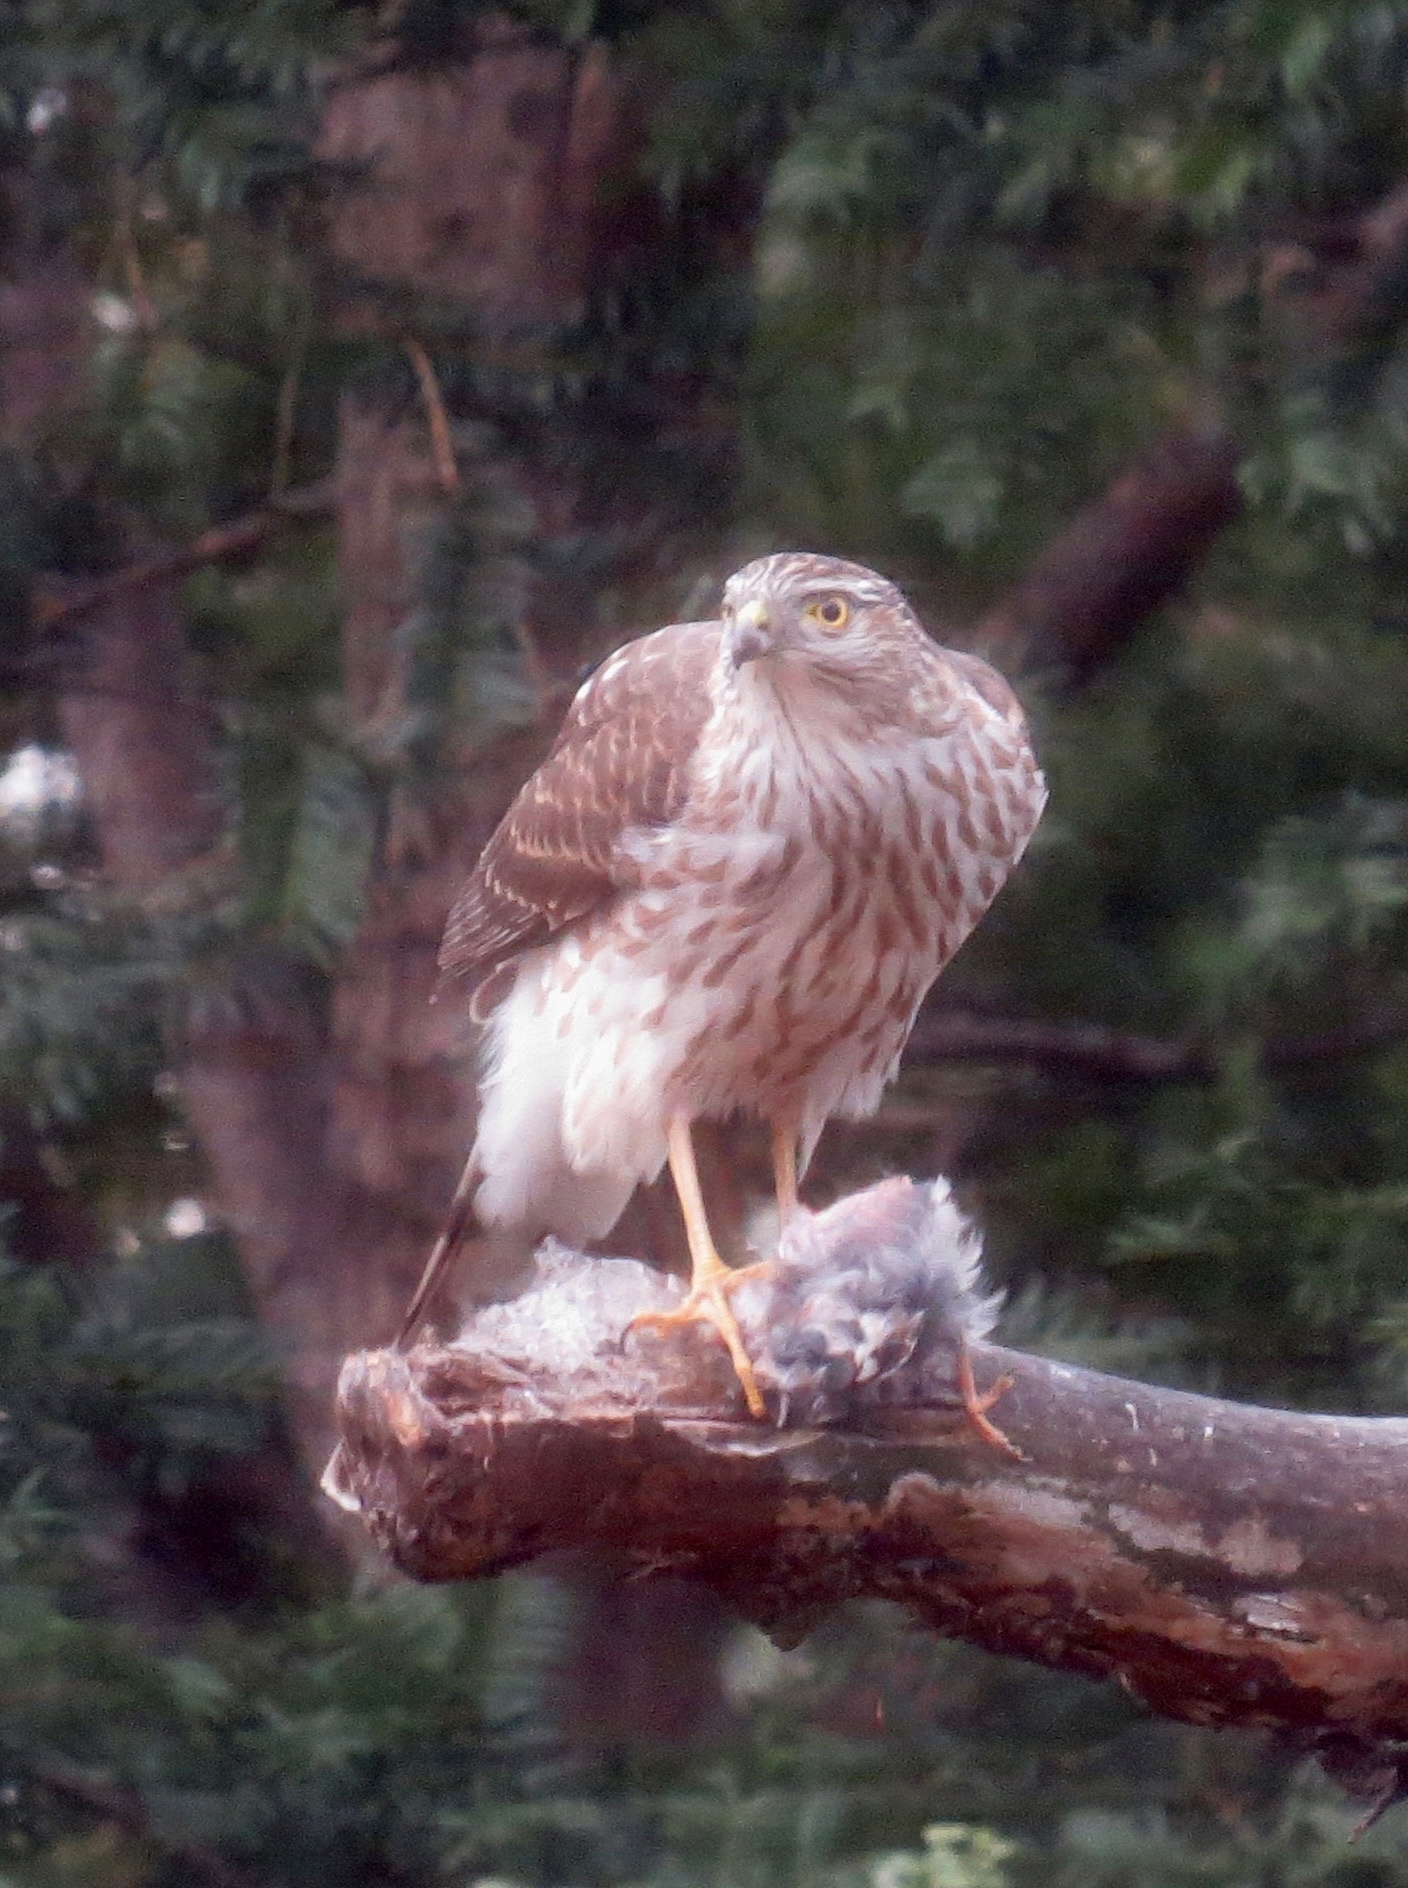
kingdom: Animalia
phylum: Chordata
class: Aves
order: Accipitriformes
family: Accipitridae
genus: Accipiter
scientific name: Accipiter striatus
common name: Sharp-shinned hawk
